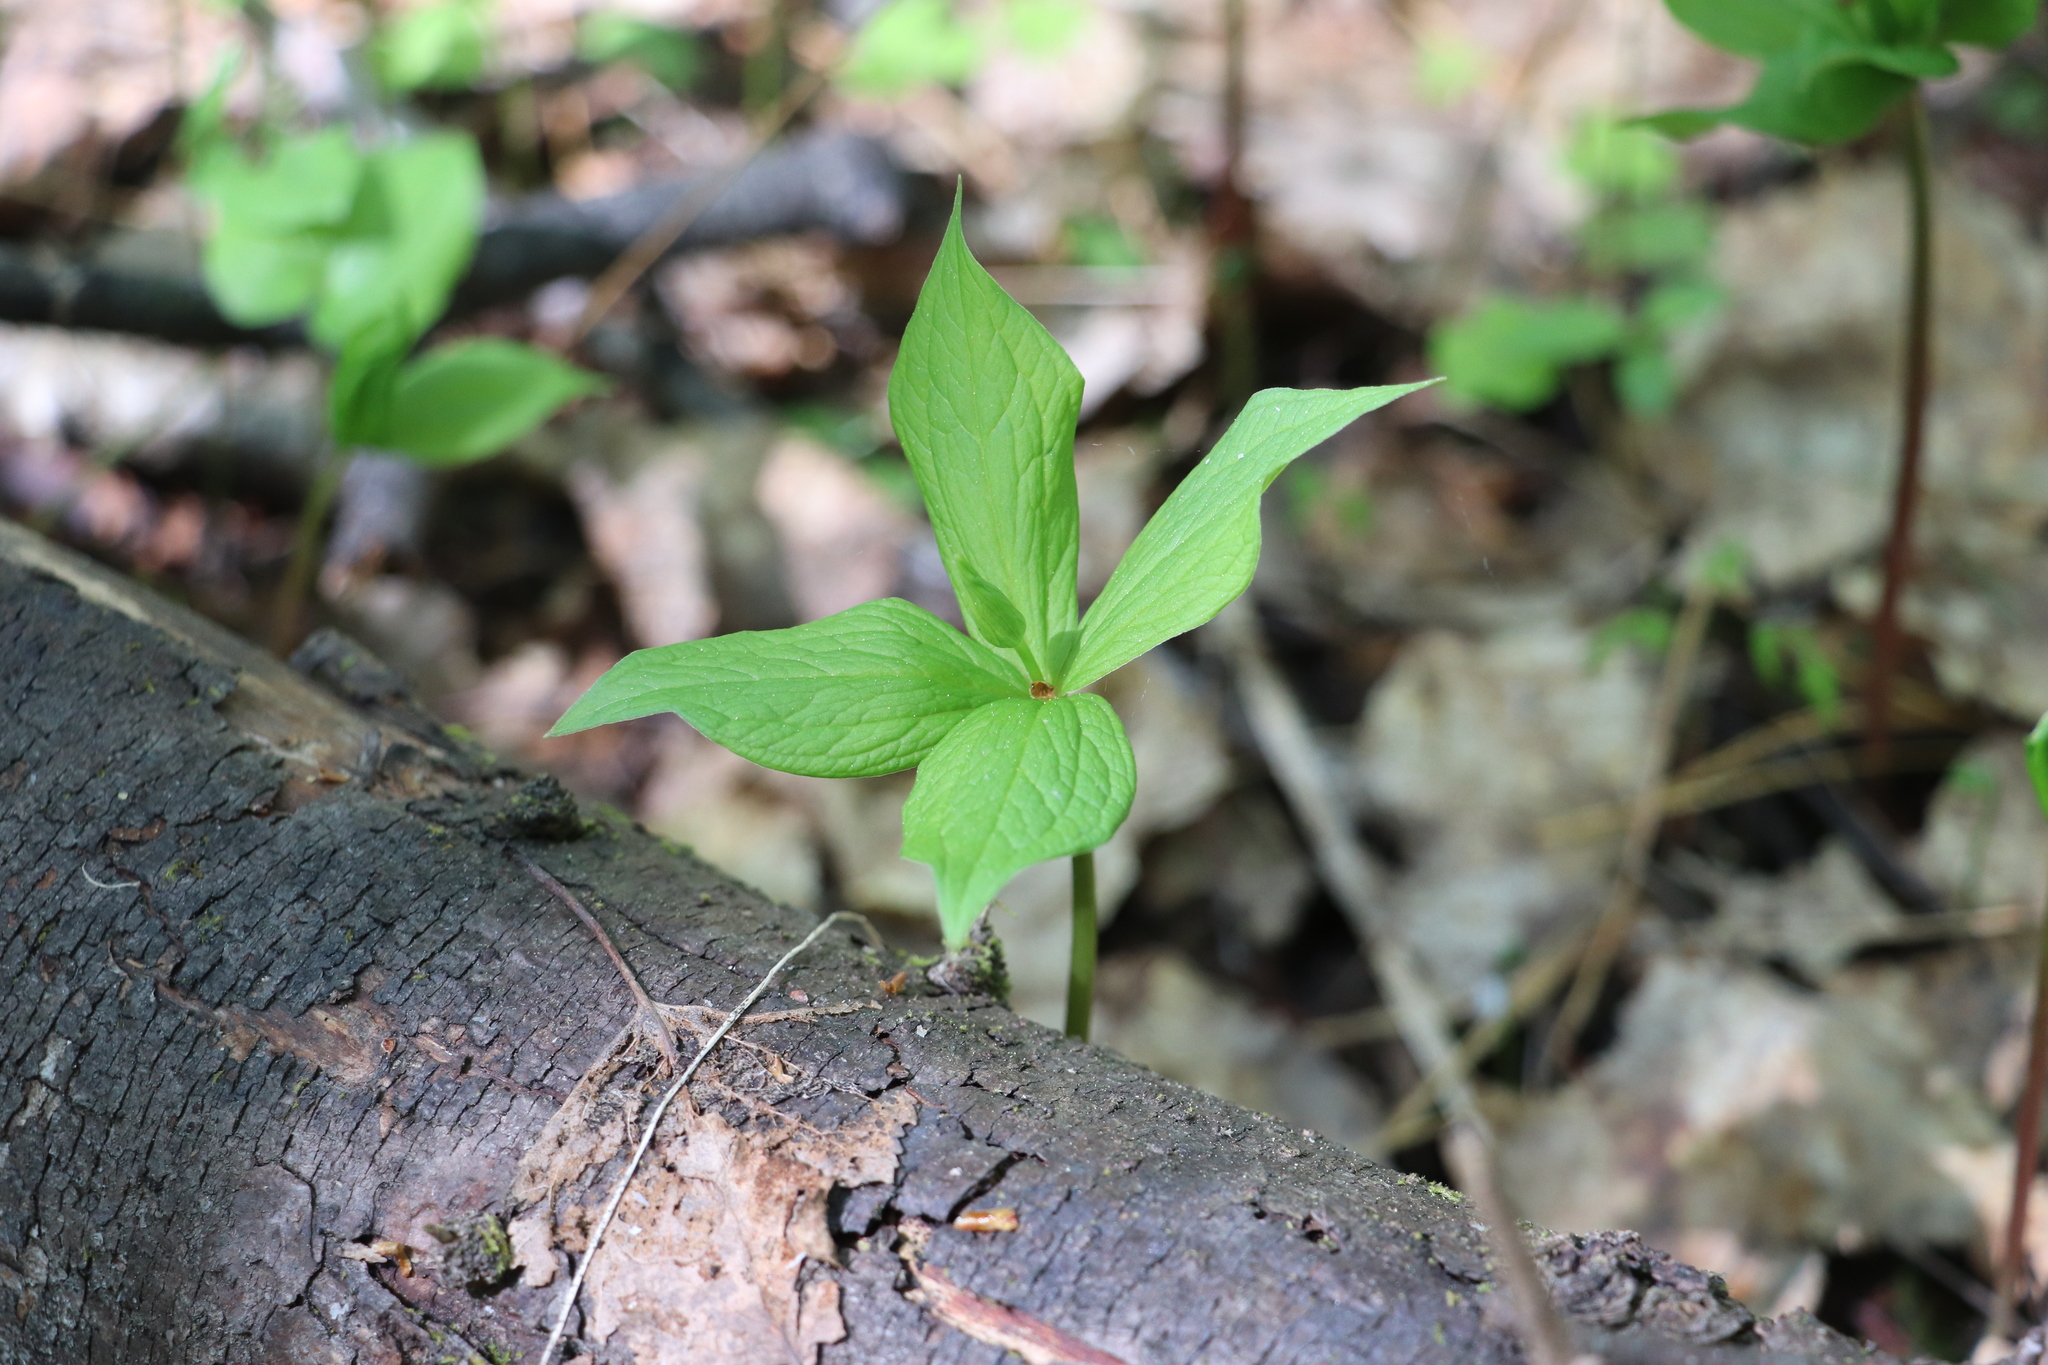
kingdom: Plantae
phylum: Tracheophyta
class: Liliopsida
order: Liliales
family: Melanthiaceae
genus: Paris
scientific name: Paris quadrifolia
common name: Herb-paris
